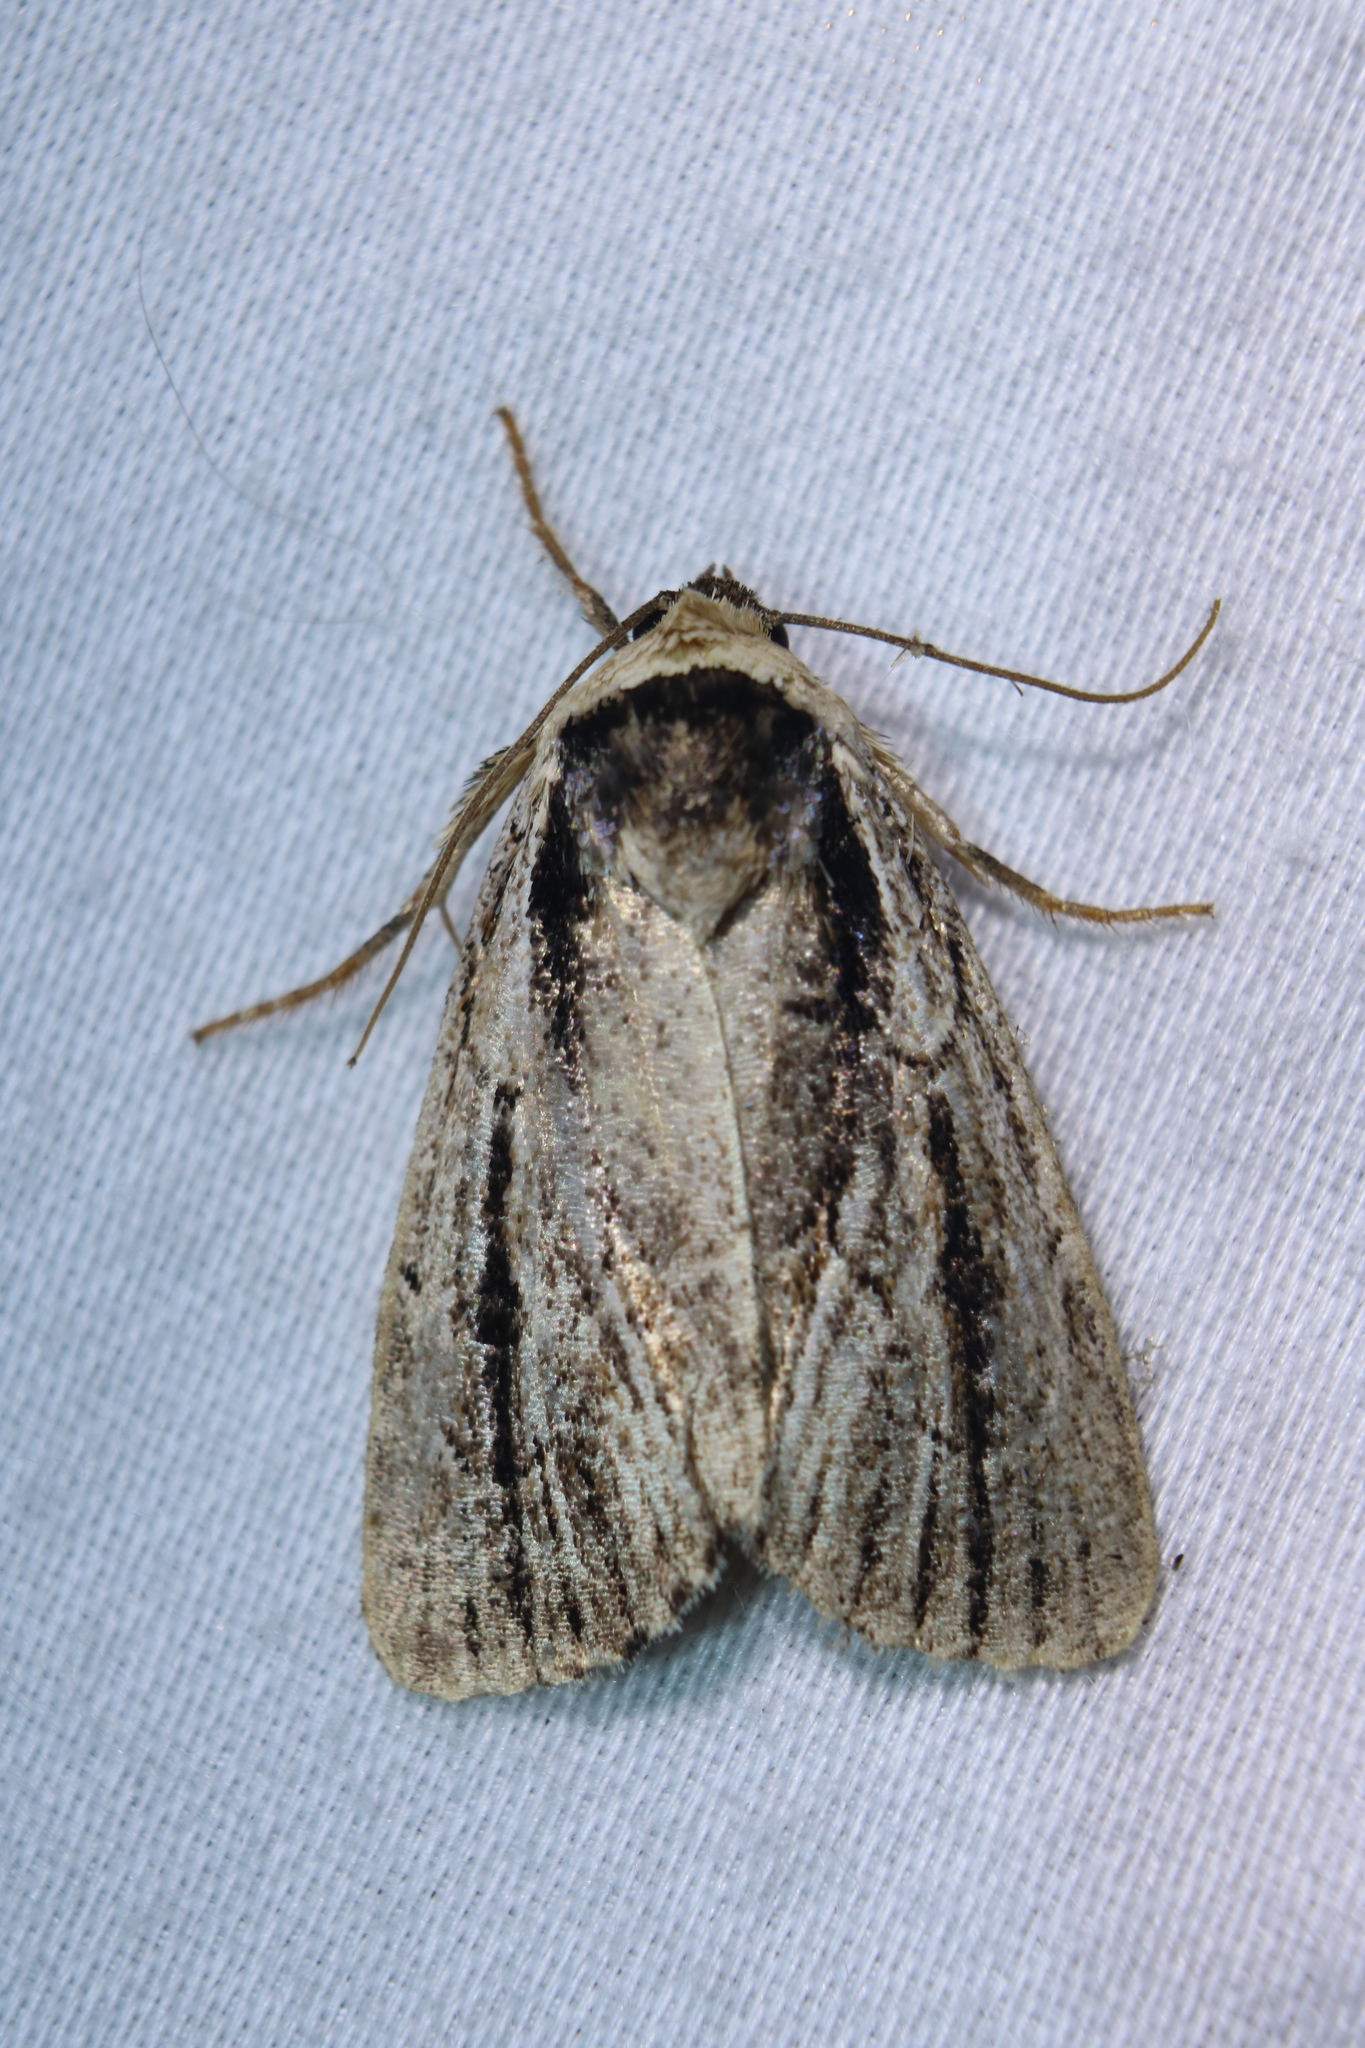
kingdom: Animalia
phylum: Arthropoda
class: Insecta
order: Lepidoptera
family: Noctuidae
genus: Sympistis
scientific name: Sympistis badistriga
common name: Brown-lined sallow moth
